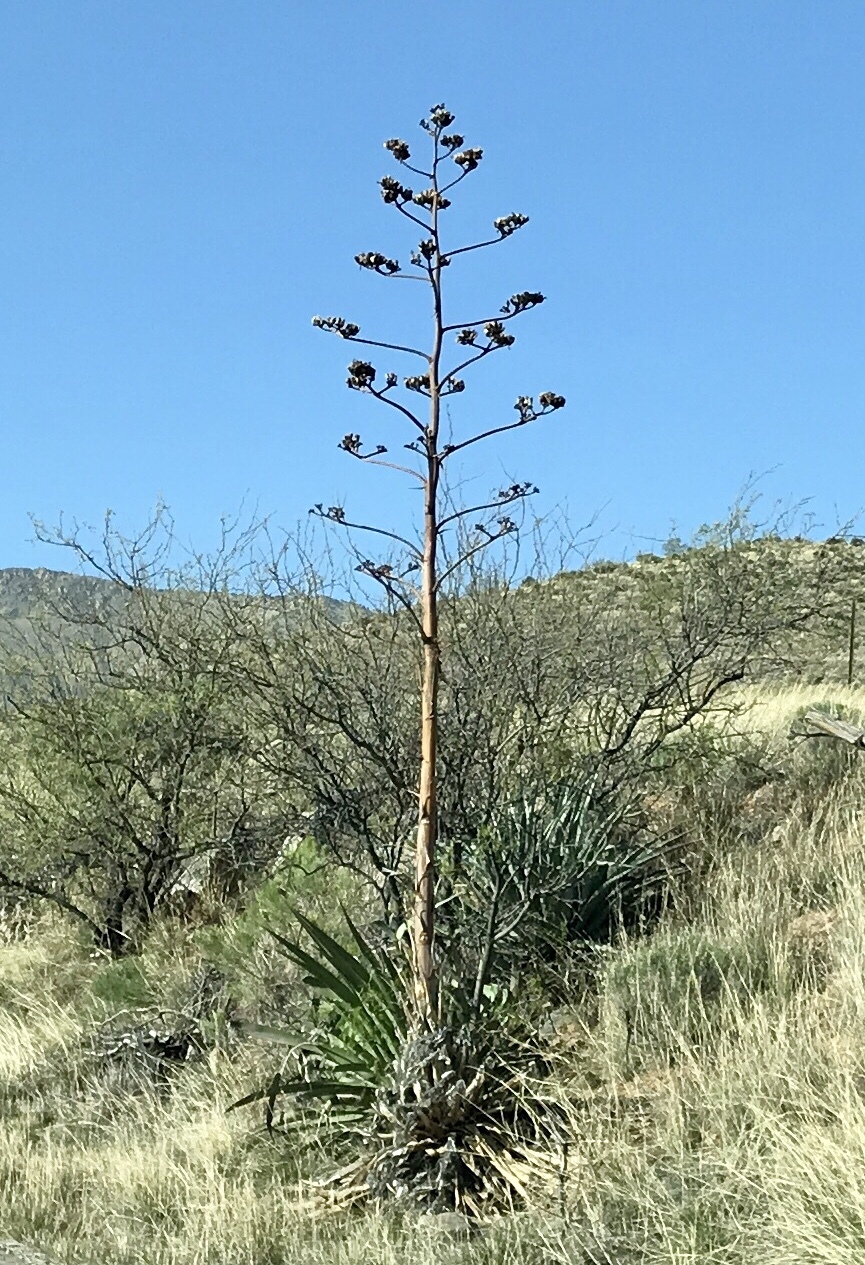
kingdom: Plantae
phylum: Tracheophyta
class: Liliopsida
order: Asparagales
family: Asparagaceae
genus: Agave
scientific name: Agave palmeri
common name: Palmer agave
